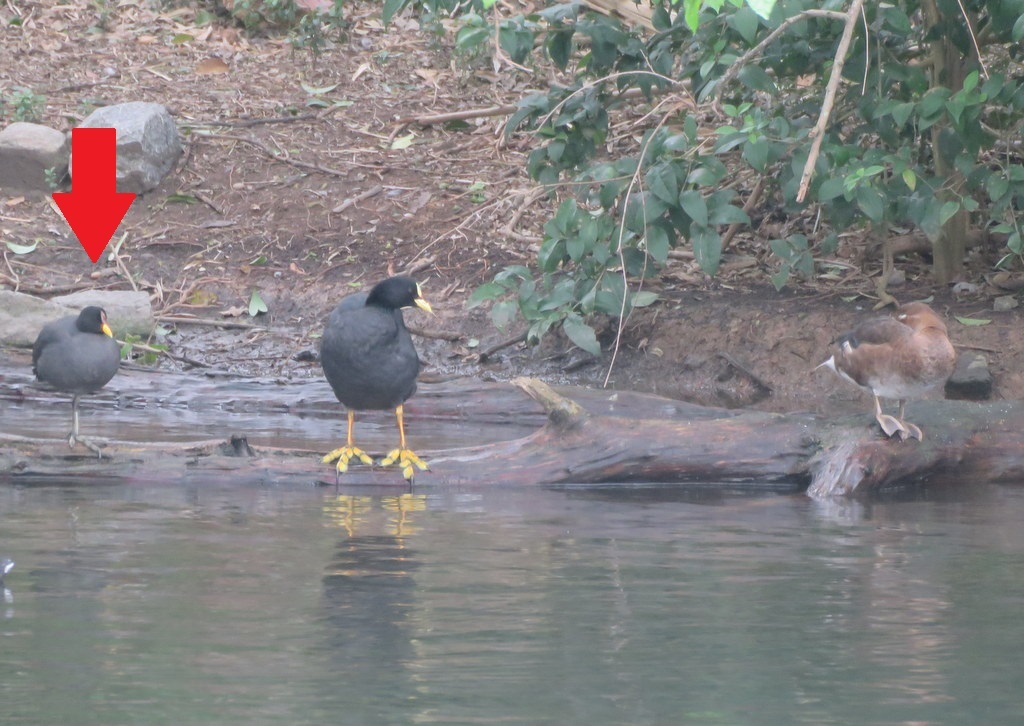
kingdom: Animalia
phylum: Chordata
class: Aves
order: Gruiformes
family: Rallidae
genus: Fulica
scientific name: Fulica rufifrons
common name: Red-fronted coot
